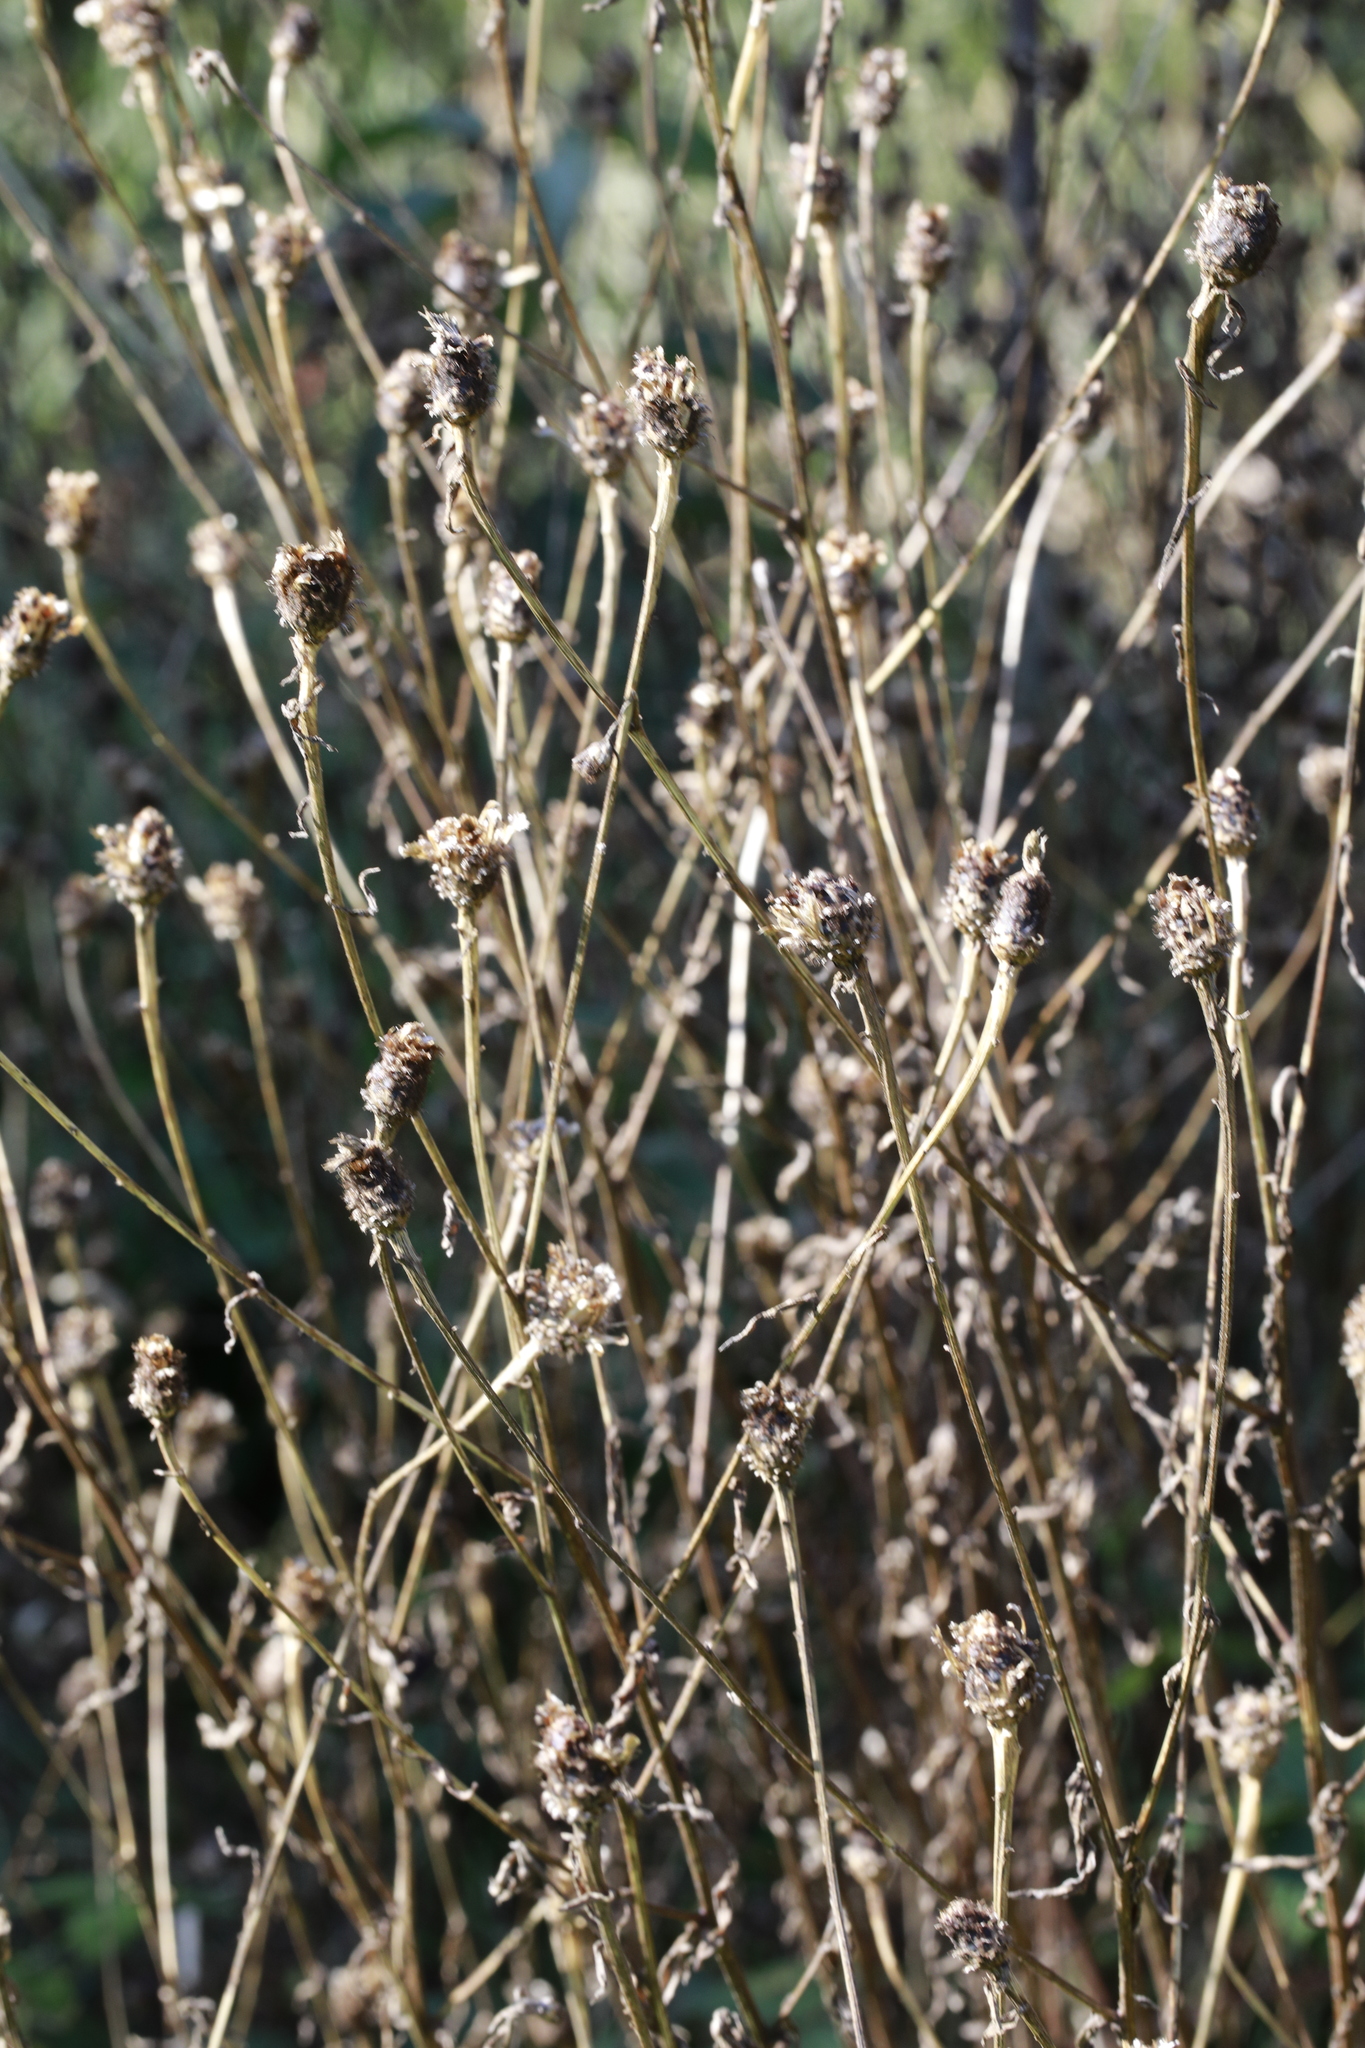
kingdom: Plantae
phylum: Tracheophyta
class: Magnoliopsida
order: Asterales
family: Asteraceae
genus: Centaurea
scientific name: Centaurea nigra
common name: Lesser knapweed
